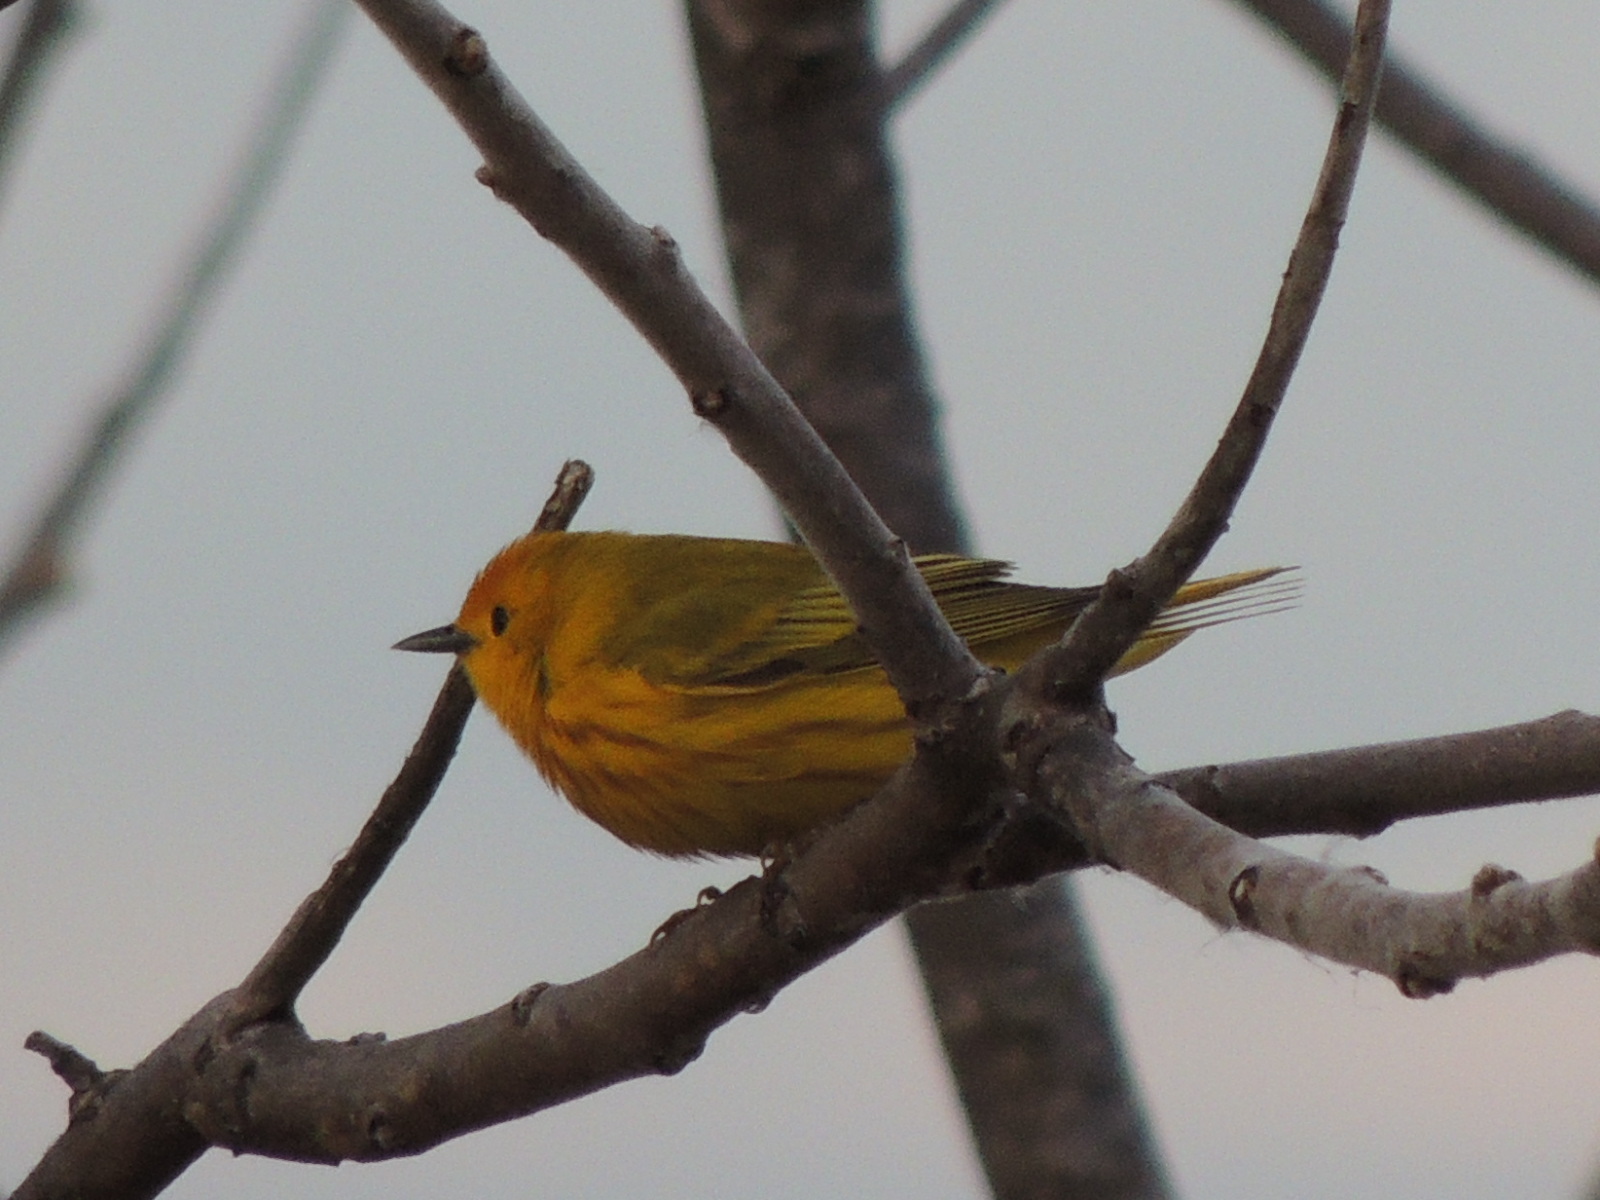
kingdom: Animalia
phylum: Chordata
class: Aves
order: Passeriformes
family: Parulidae
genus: Setophaga
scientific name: Setophaga petechia
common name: Yellow warbler
